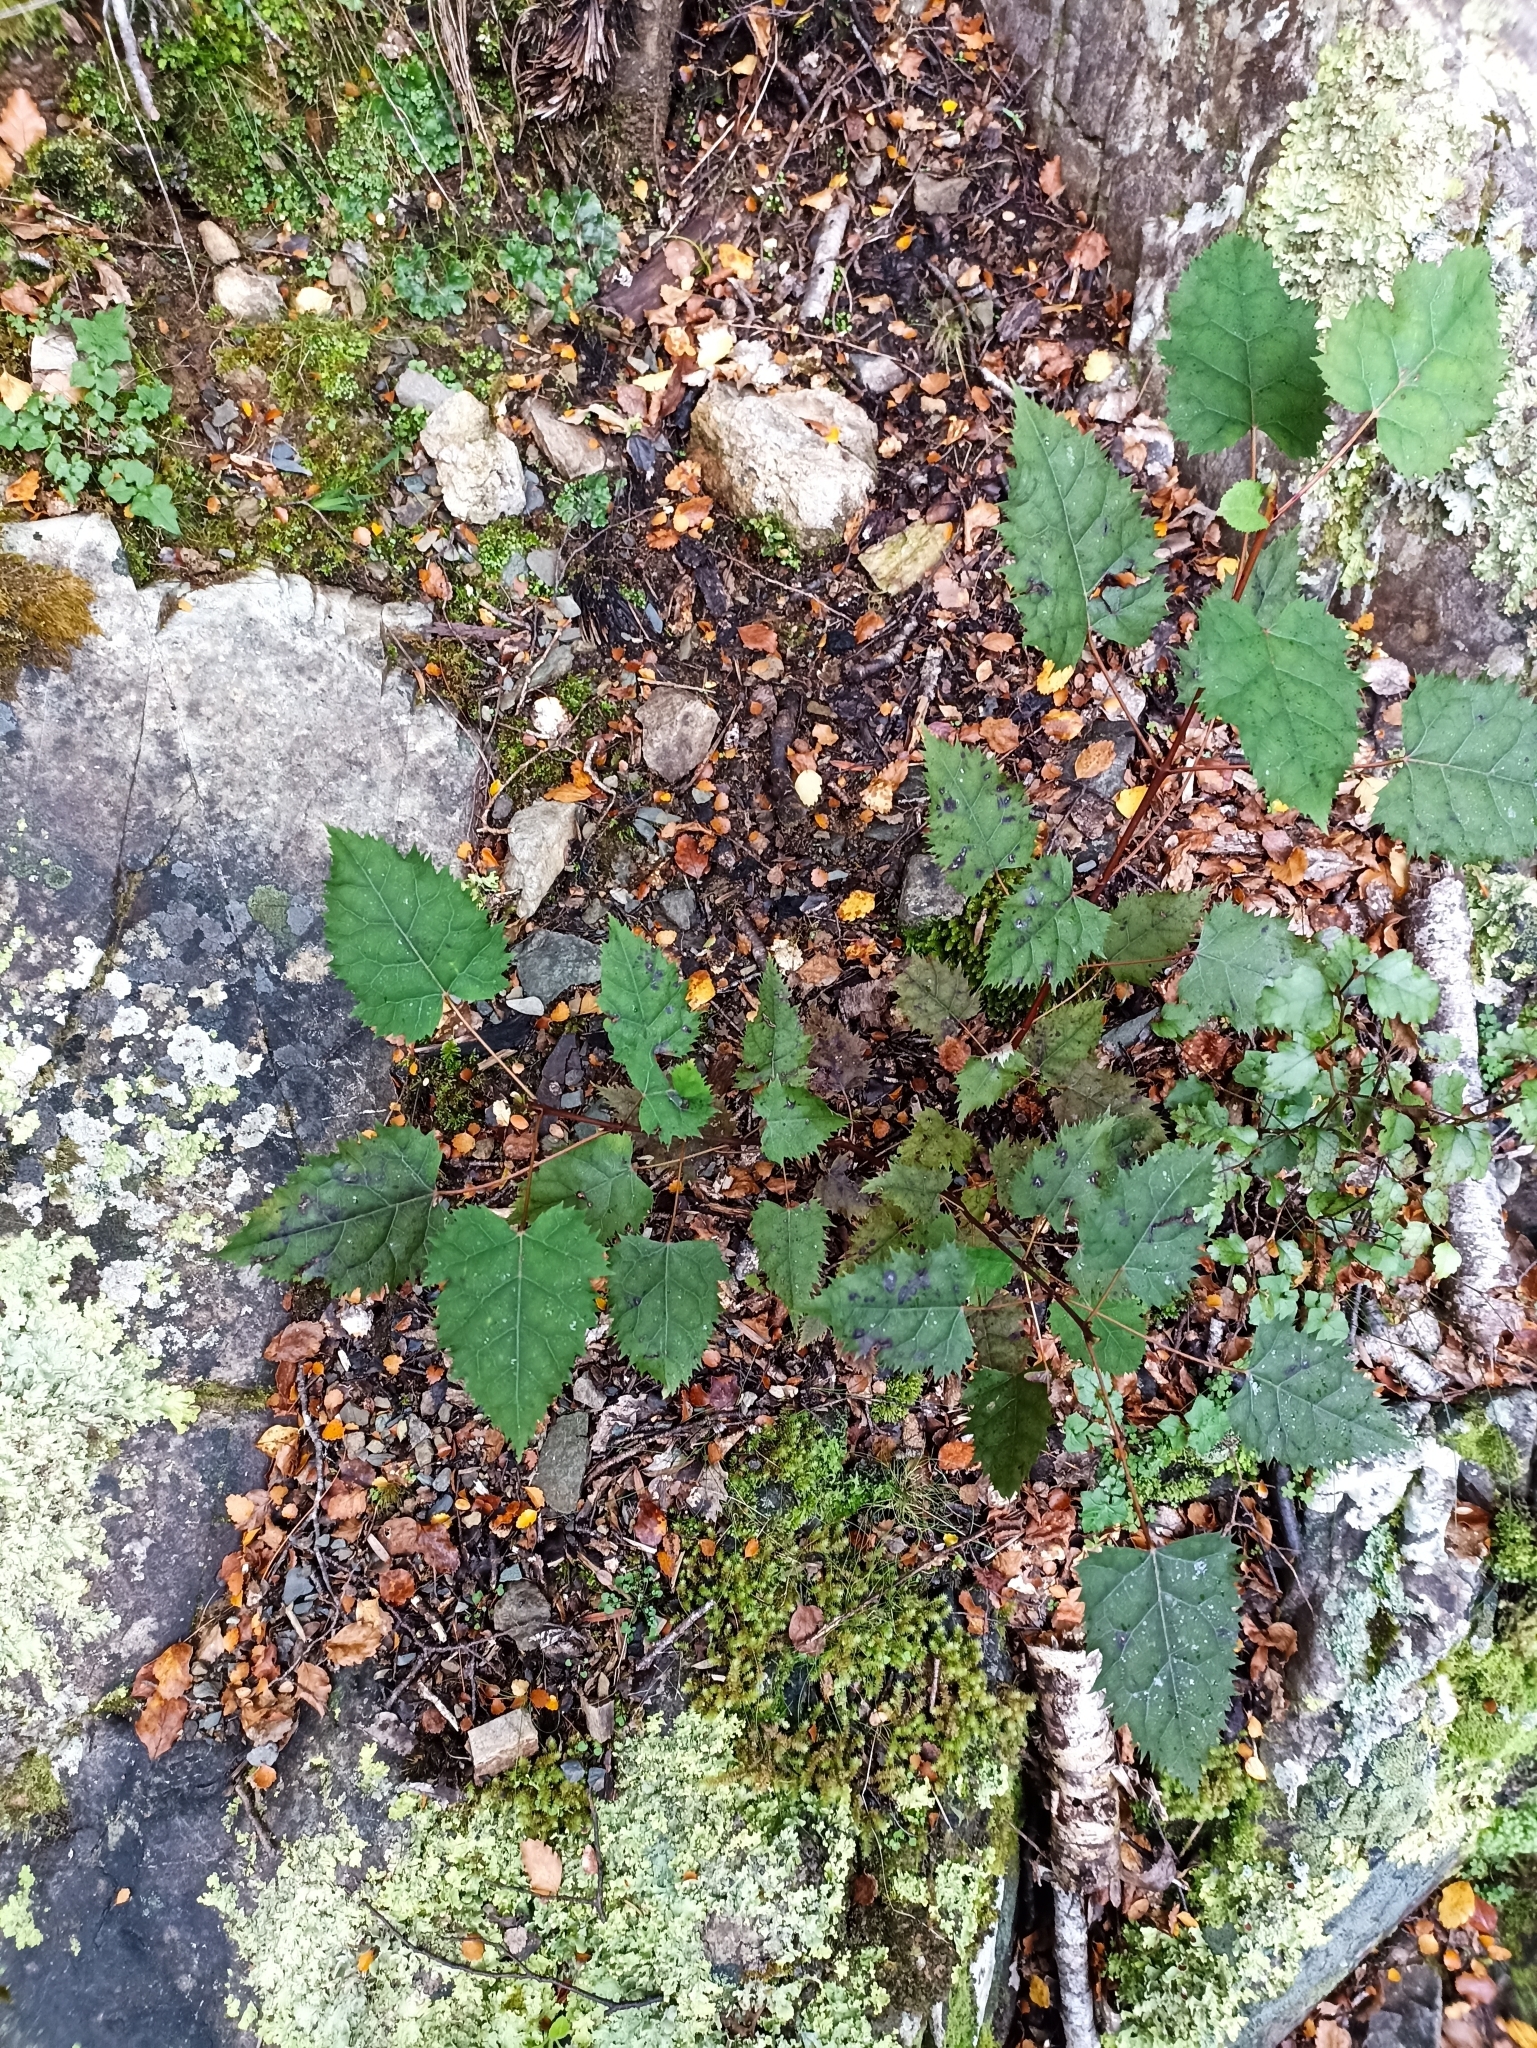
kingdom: Plantae
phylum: Tracheophyta
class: Magnoliopsida
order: Oxalidales
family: Elaeocarpaceae
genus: Aristotelia
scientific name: Aristotelia serrata
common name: New zealand wineberry
